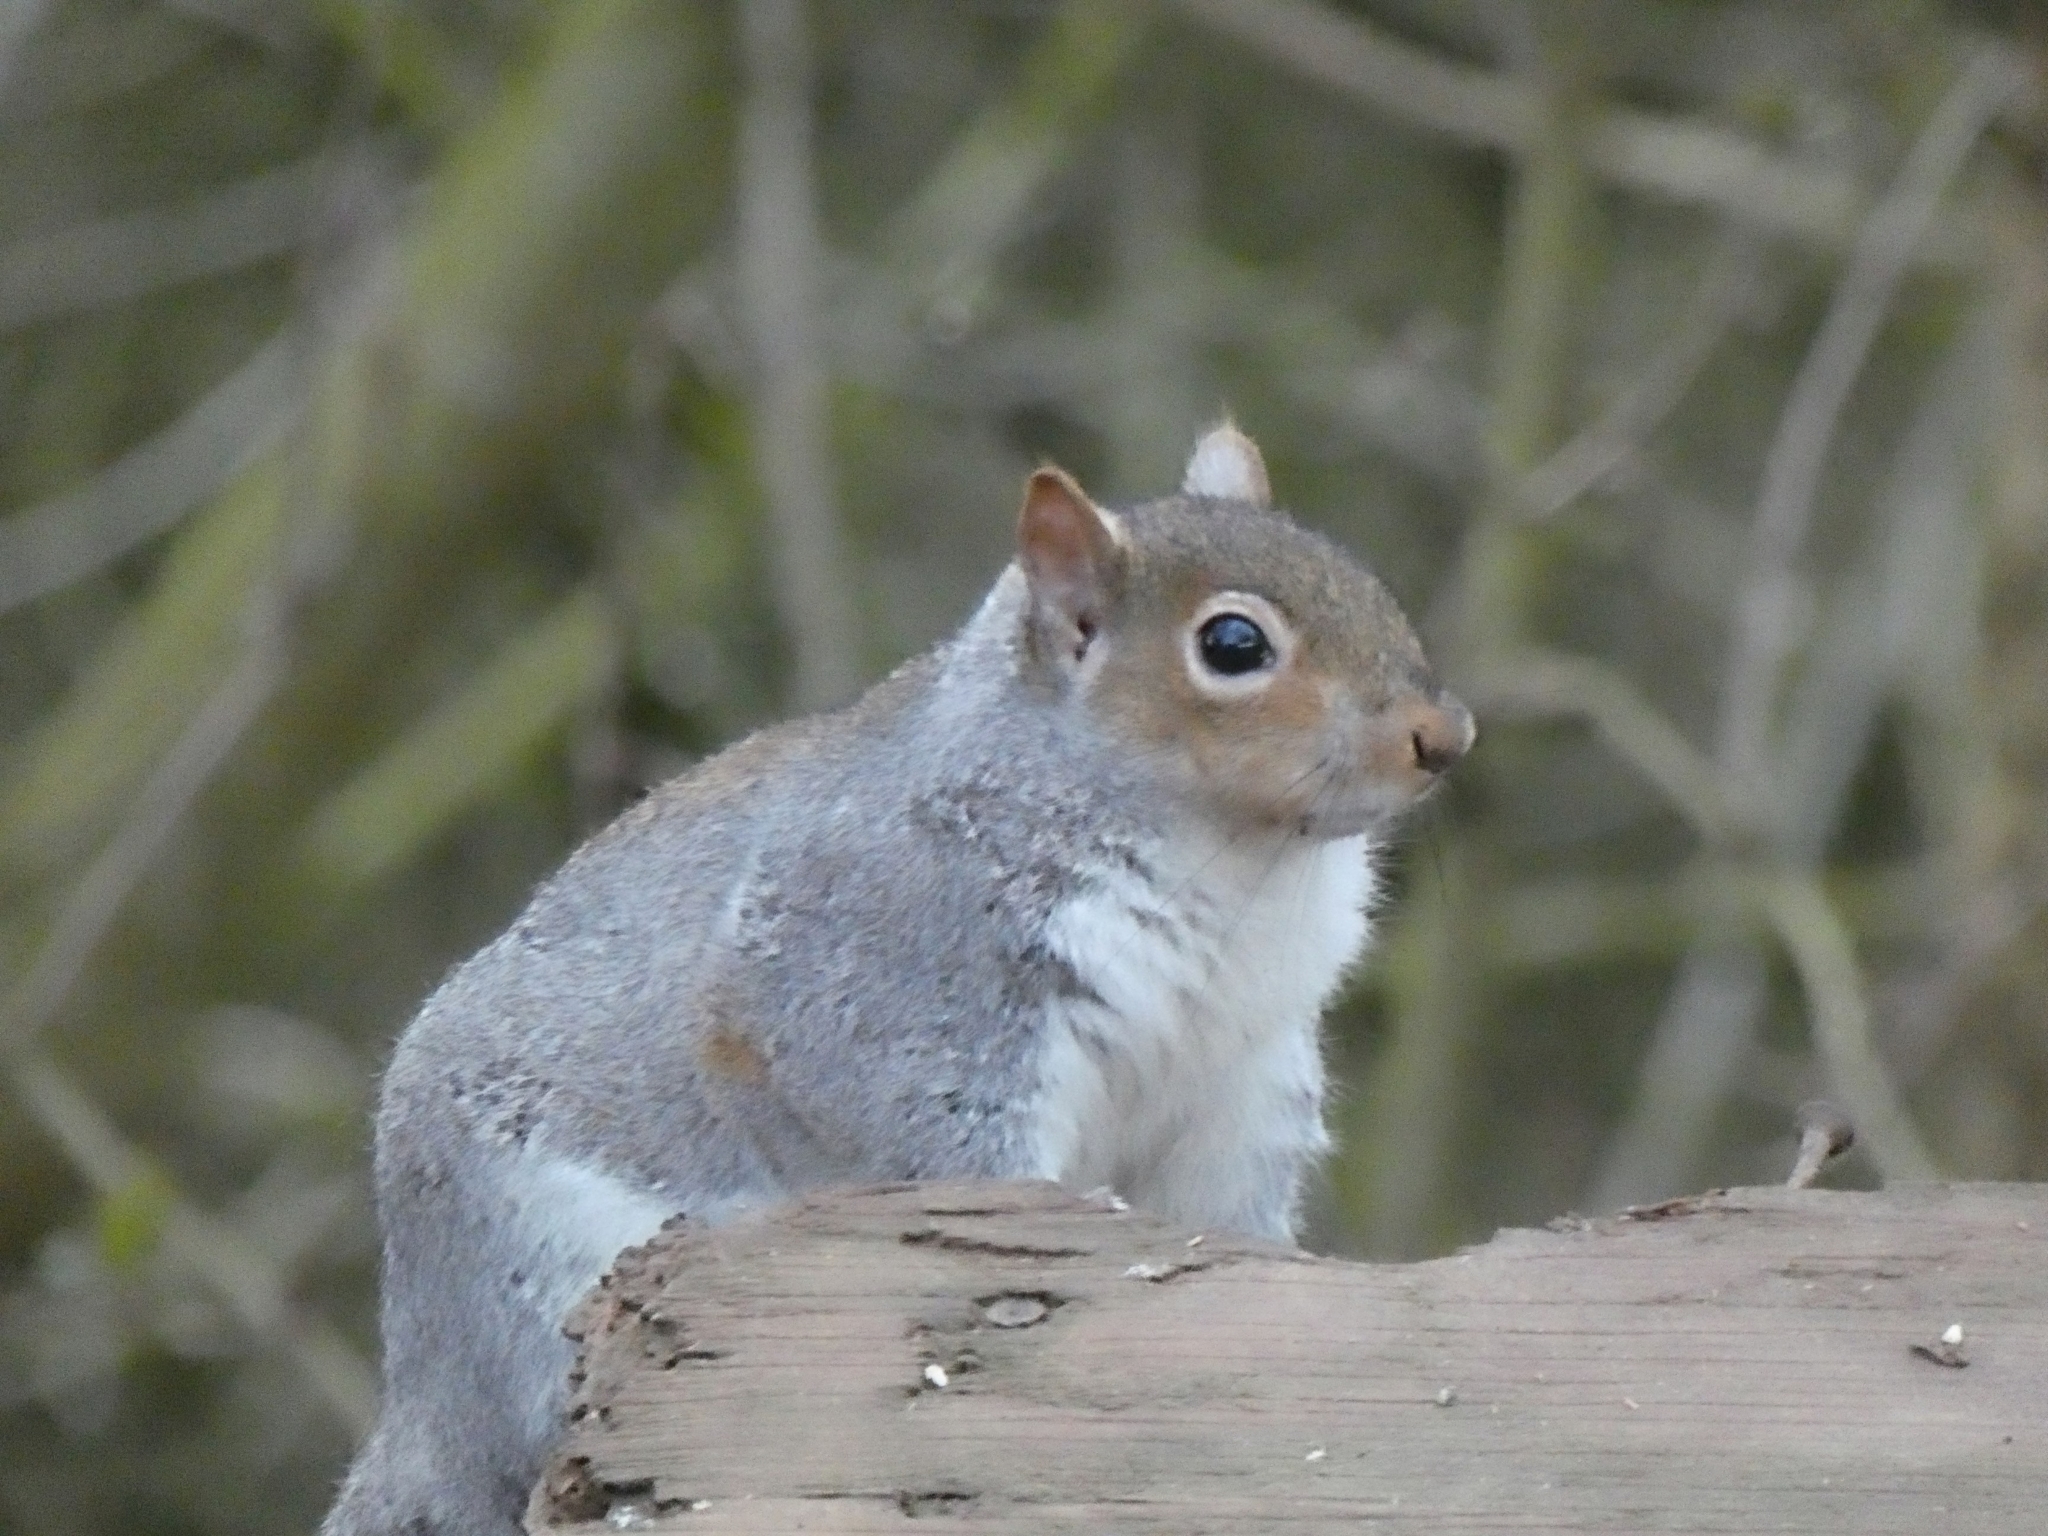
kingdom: Animalia
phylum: Chordata
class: Mammalia
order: Rodentia
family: Sciuridae
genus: Sciurus
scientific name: Sciurus carolinensis
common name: Eastern gray squirrel
